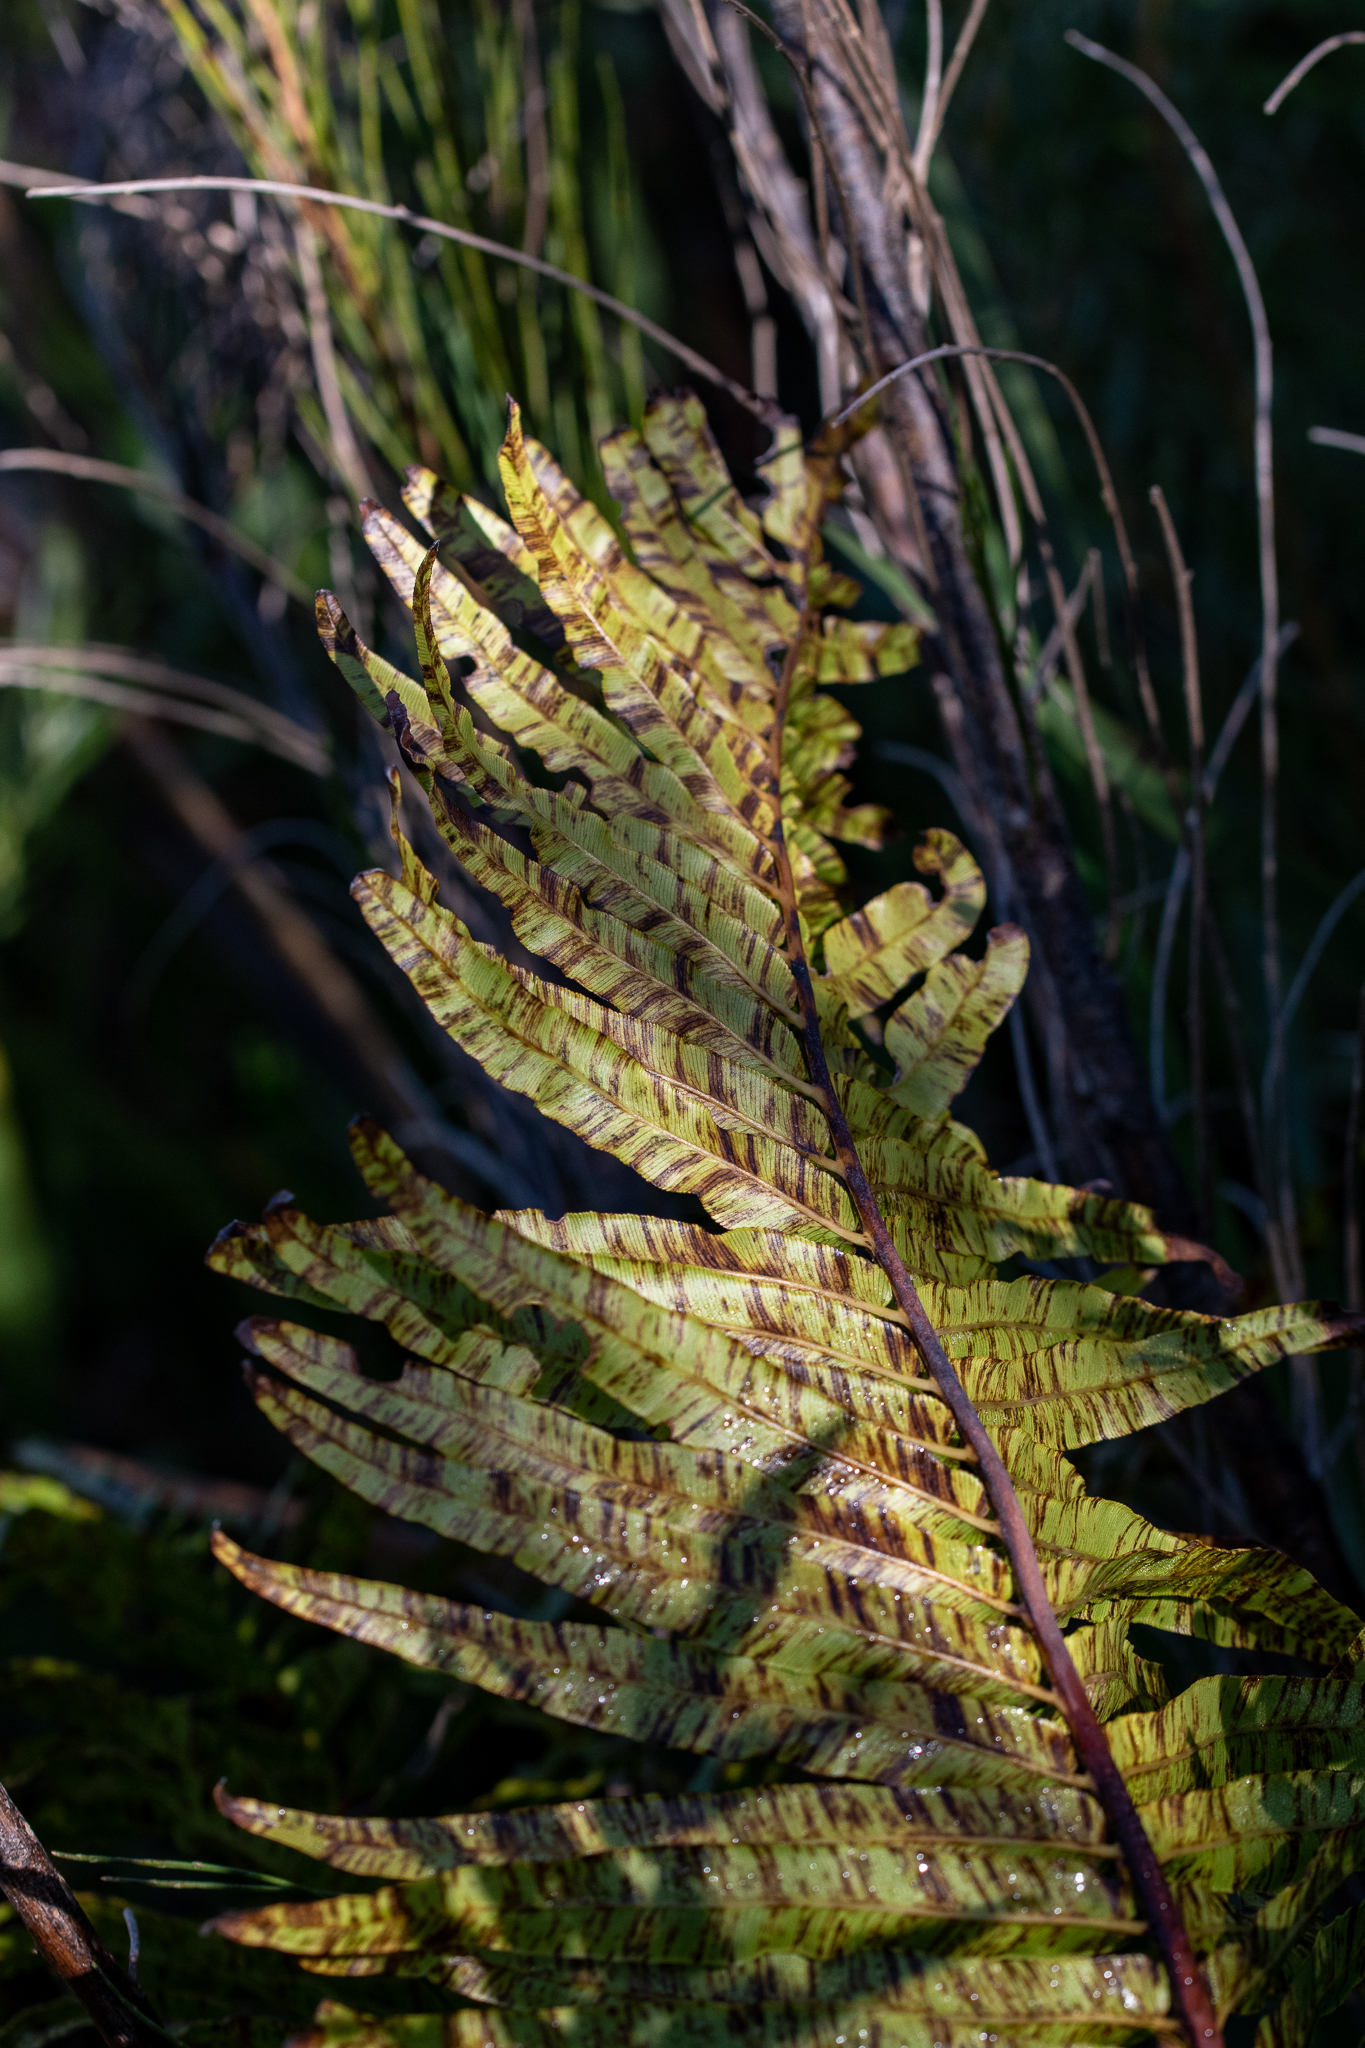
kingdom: Plantae
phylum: Tracheophyta
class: Polypodiopsida
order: Polypodiales
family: Blechnaceae
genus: Lomariocycas
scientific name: Lomariocycas tabularis
